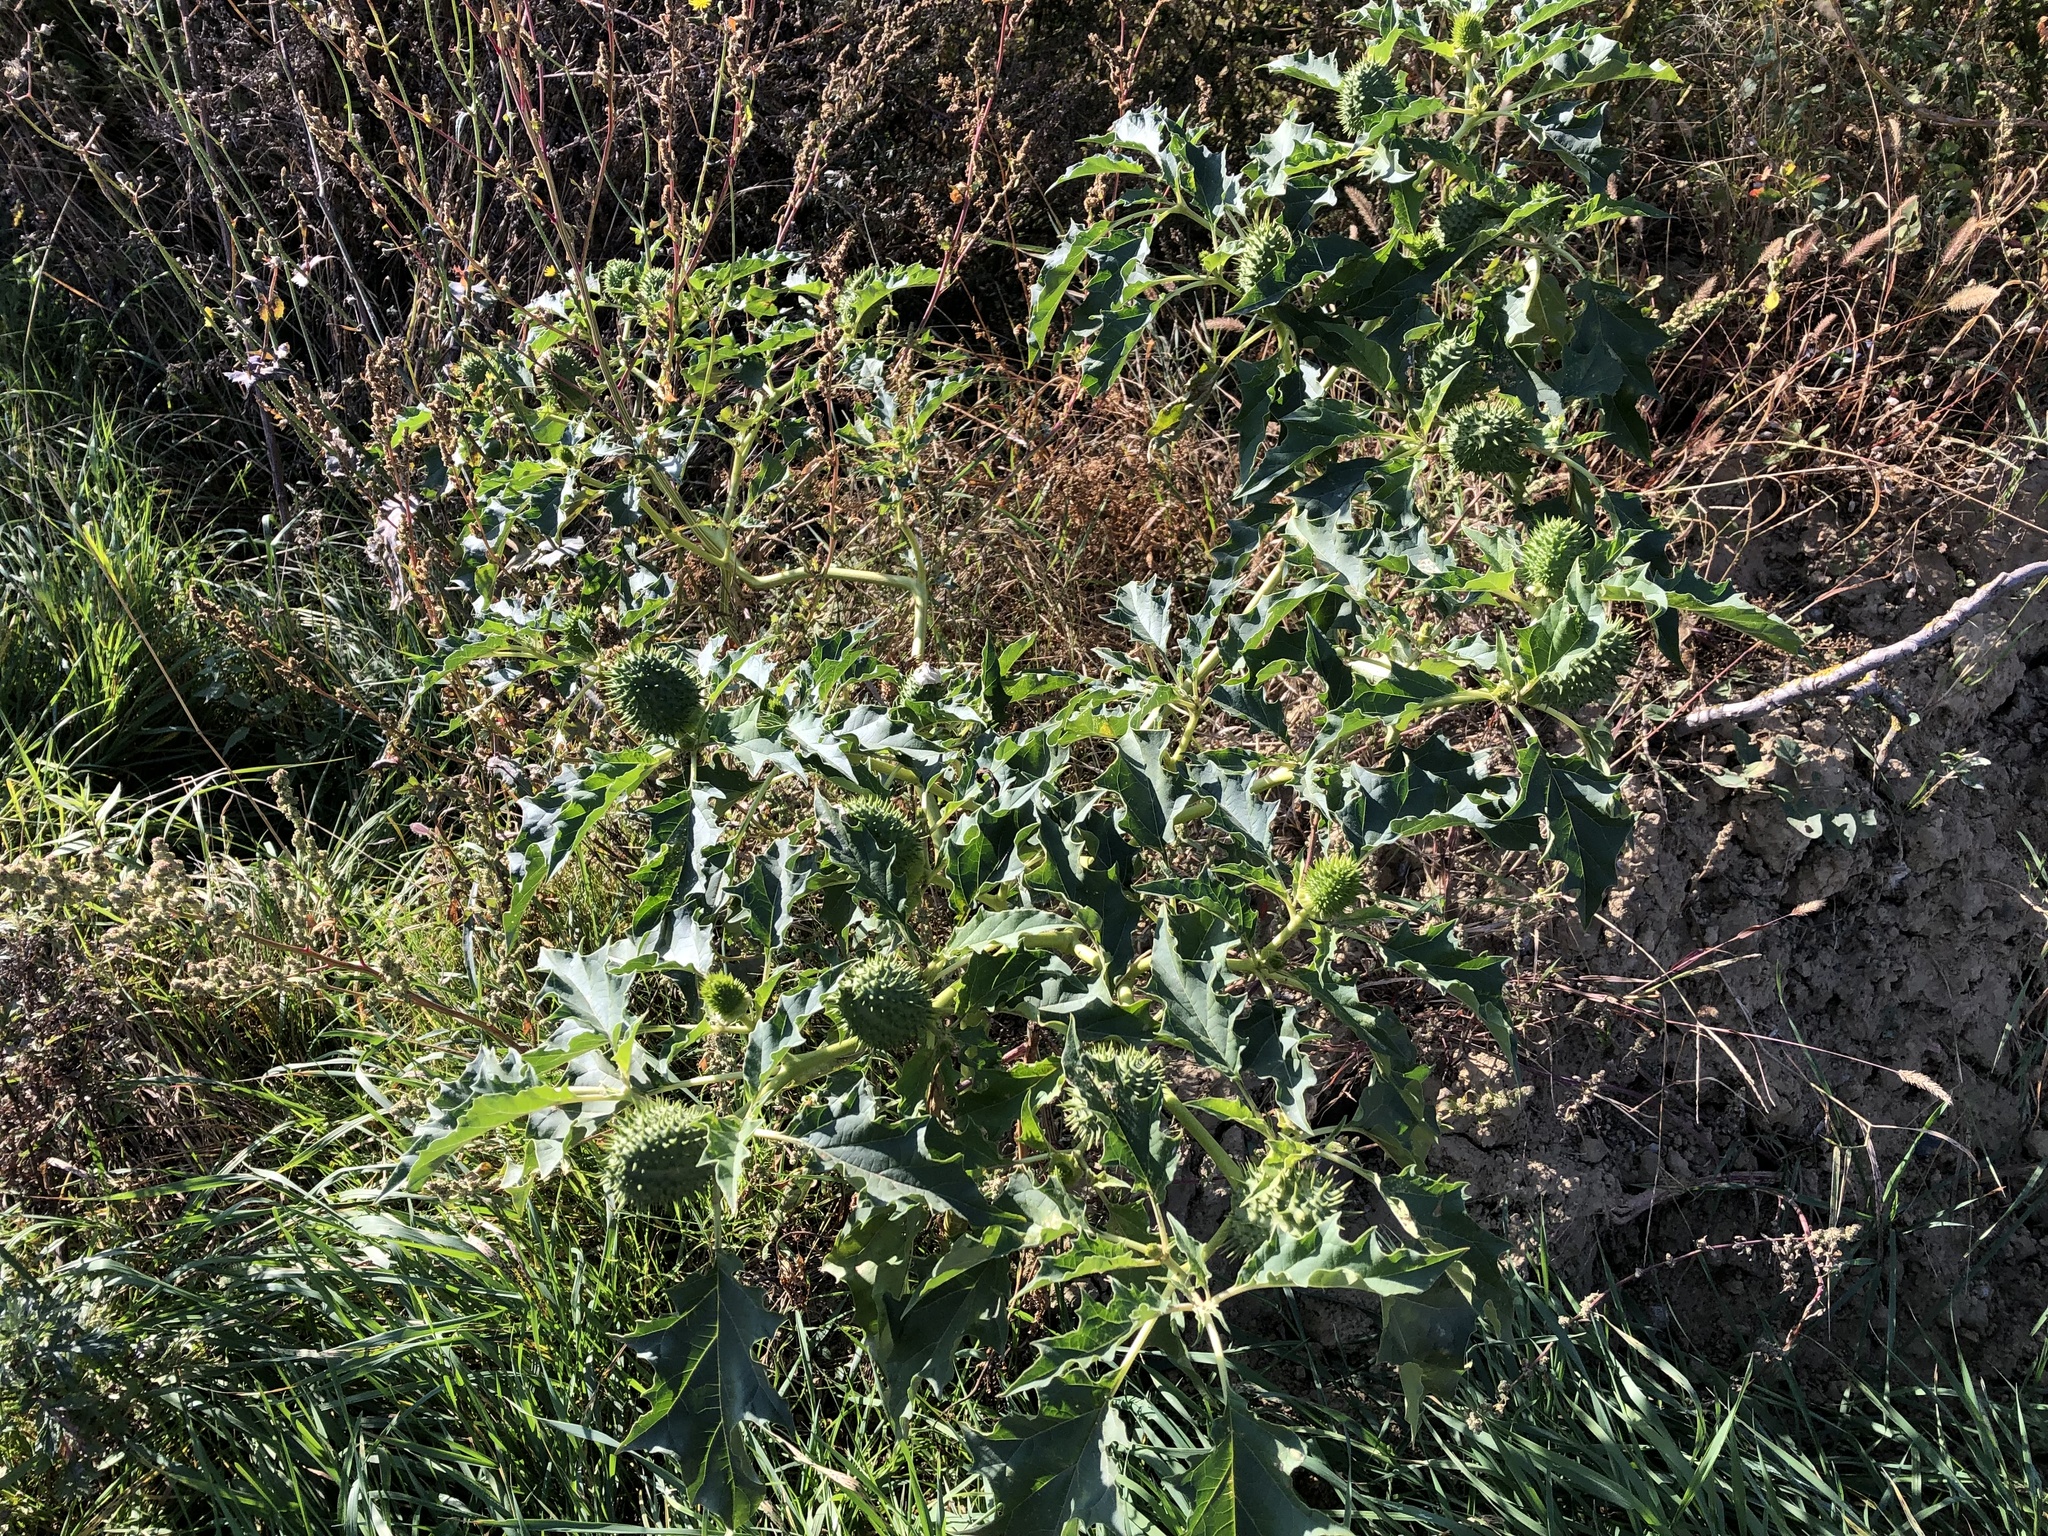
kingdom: Plantae
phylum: Tracheophyta
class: Magnoliopsida
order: Solanales
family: Solanaceae
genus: Datura
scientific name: Datura stramonium
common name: Thorn-apple
